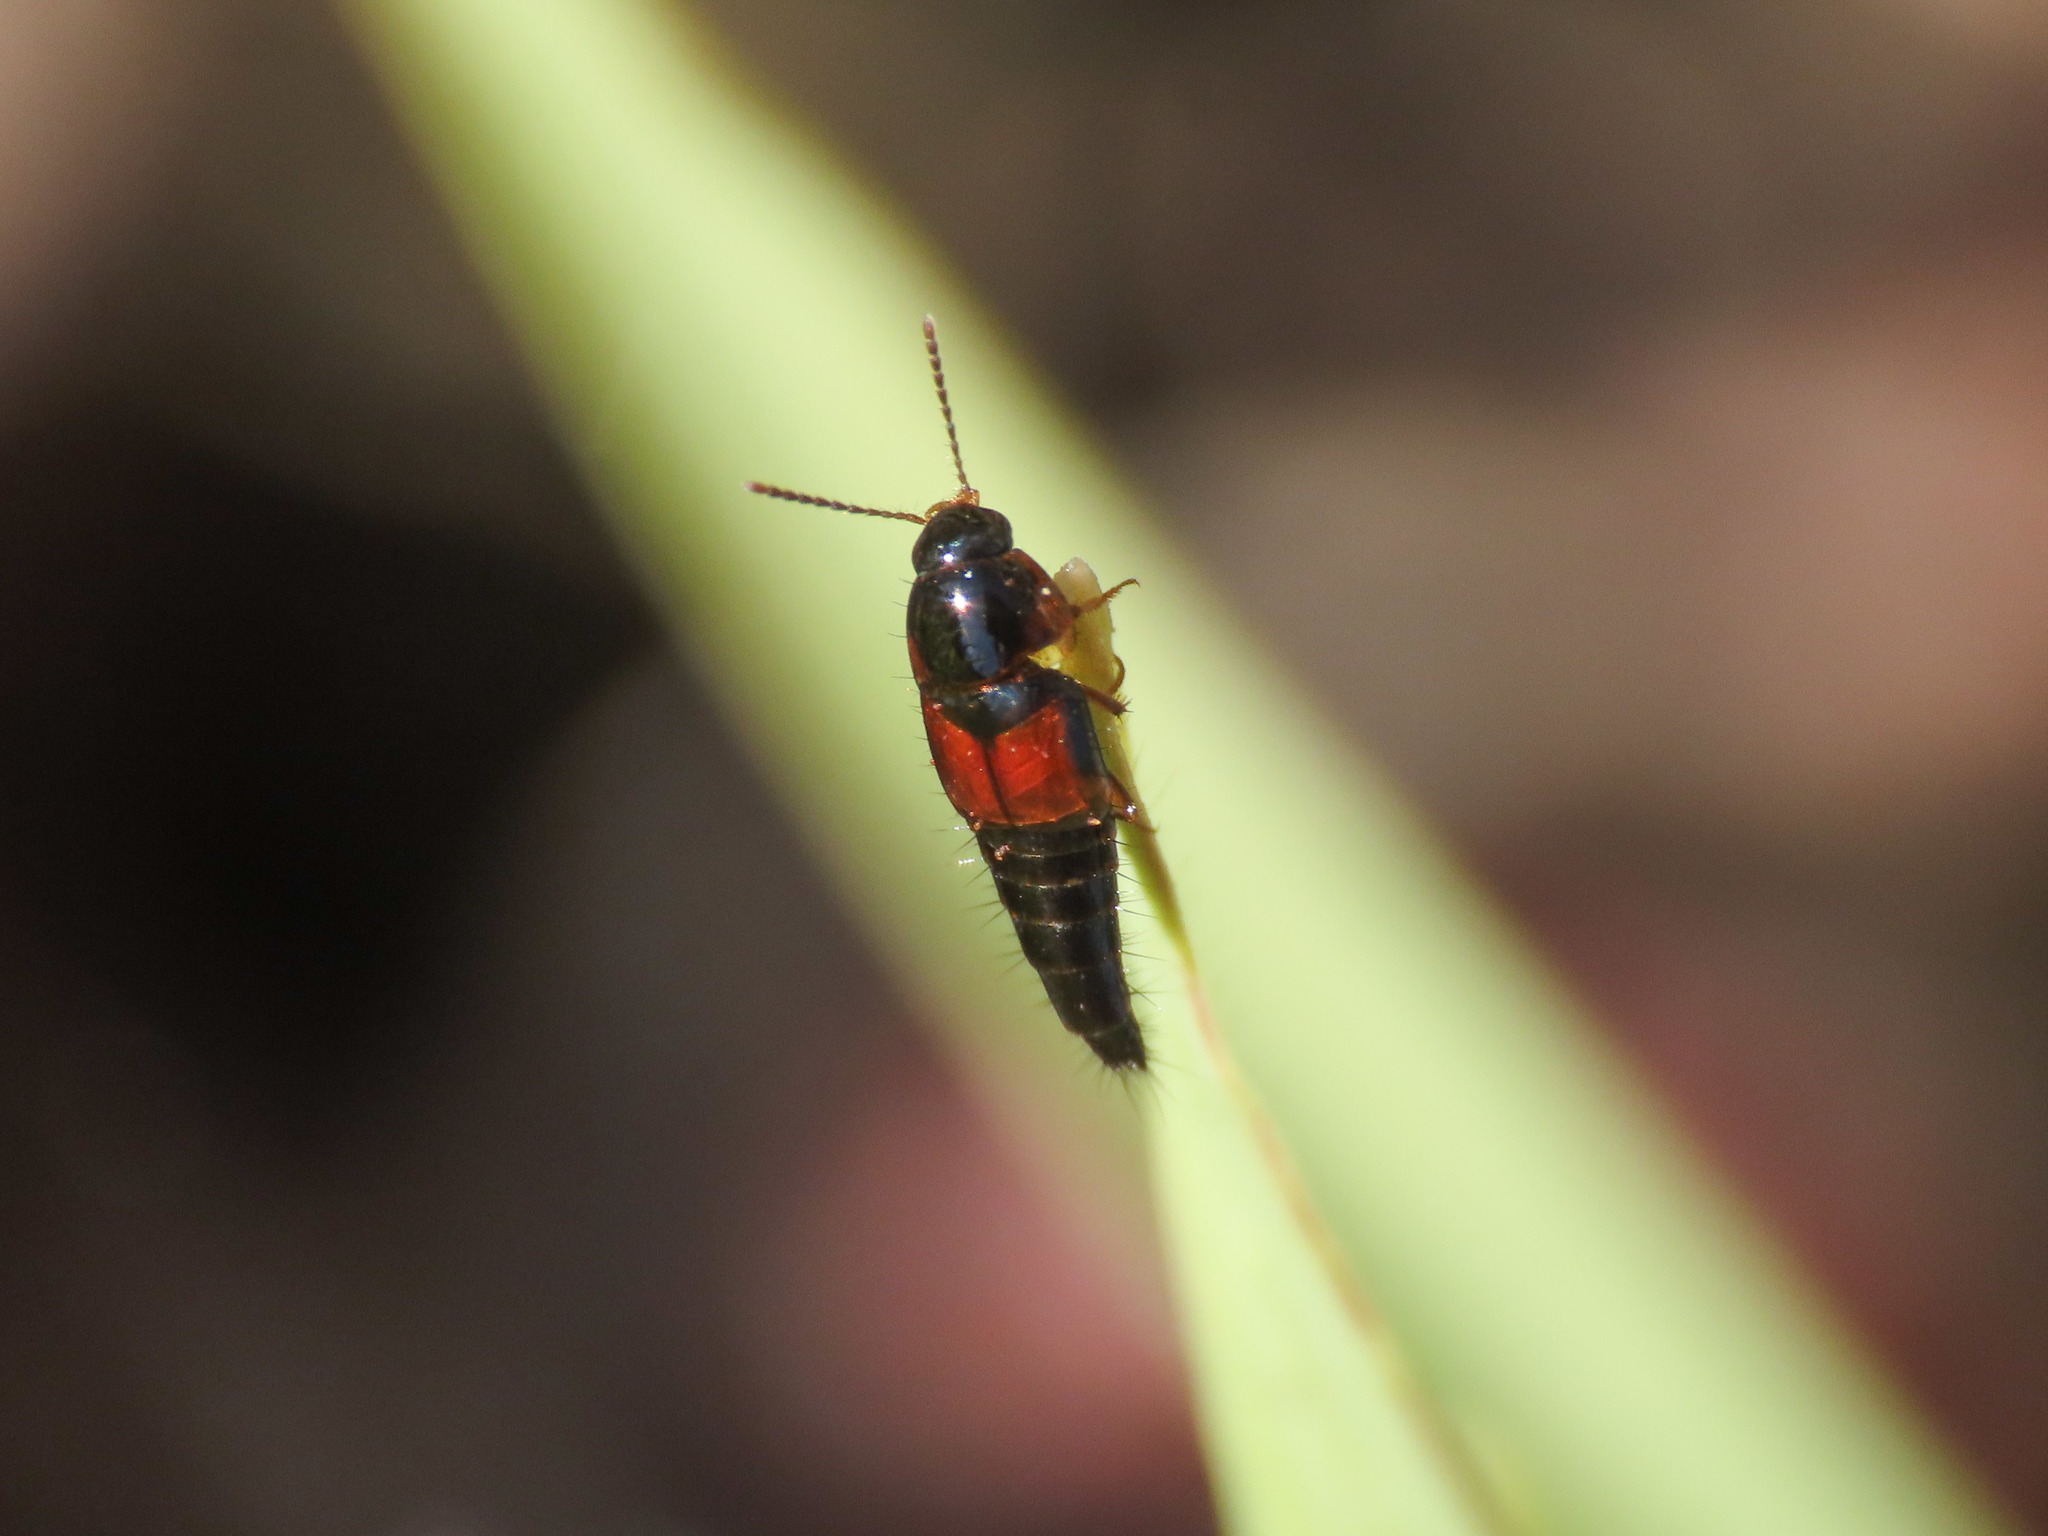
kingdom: Animalia
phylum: Arthropoda
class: Insecta
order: Coleoptera
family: Staphylinidae
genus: Tachyporus
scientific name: Tachyporus hypnorum
